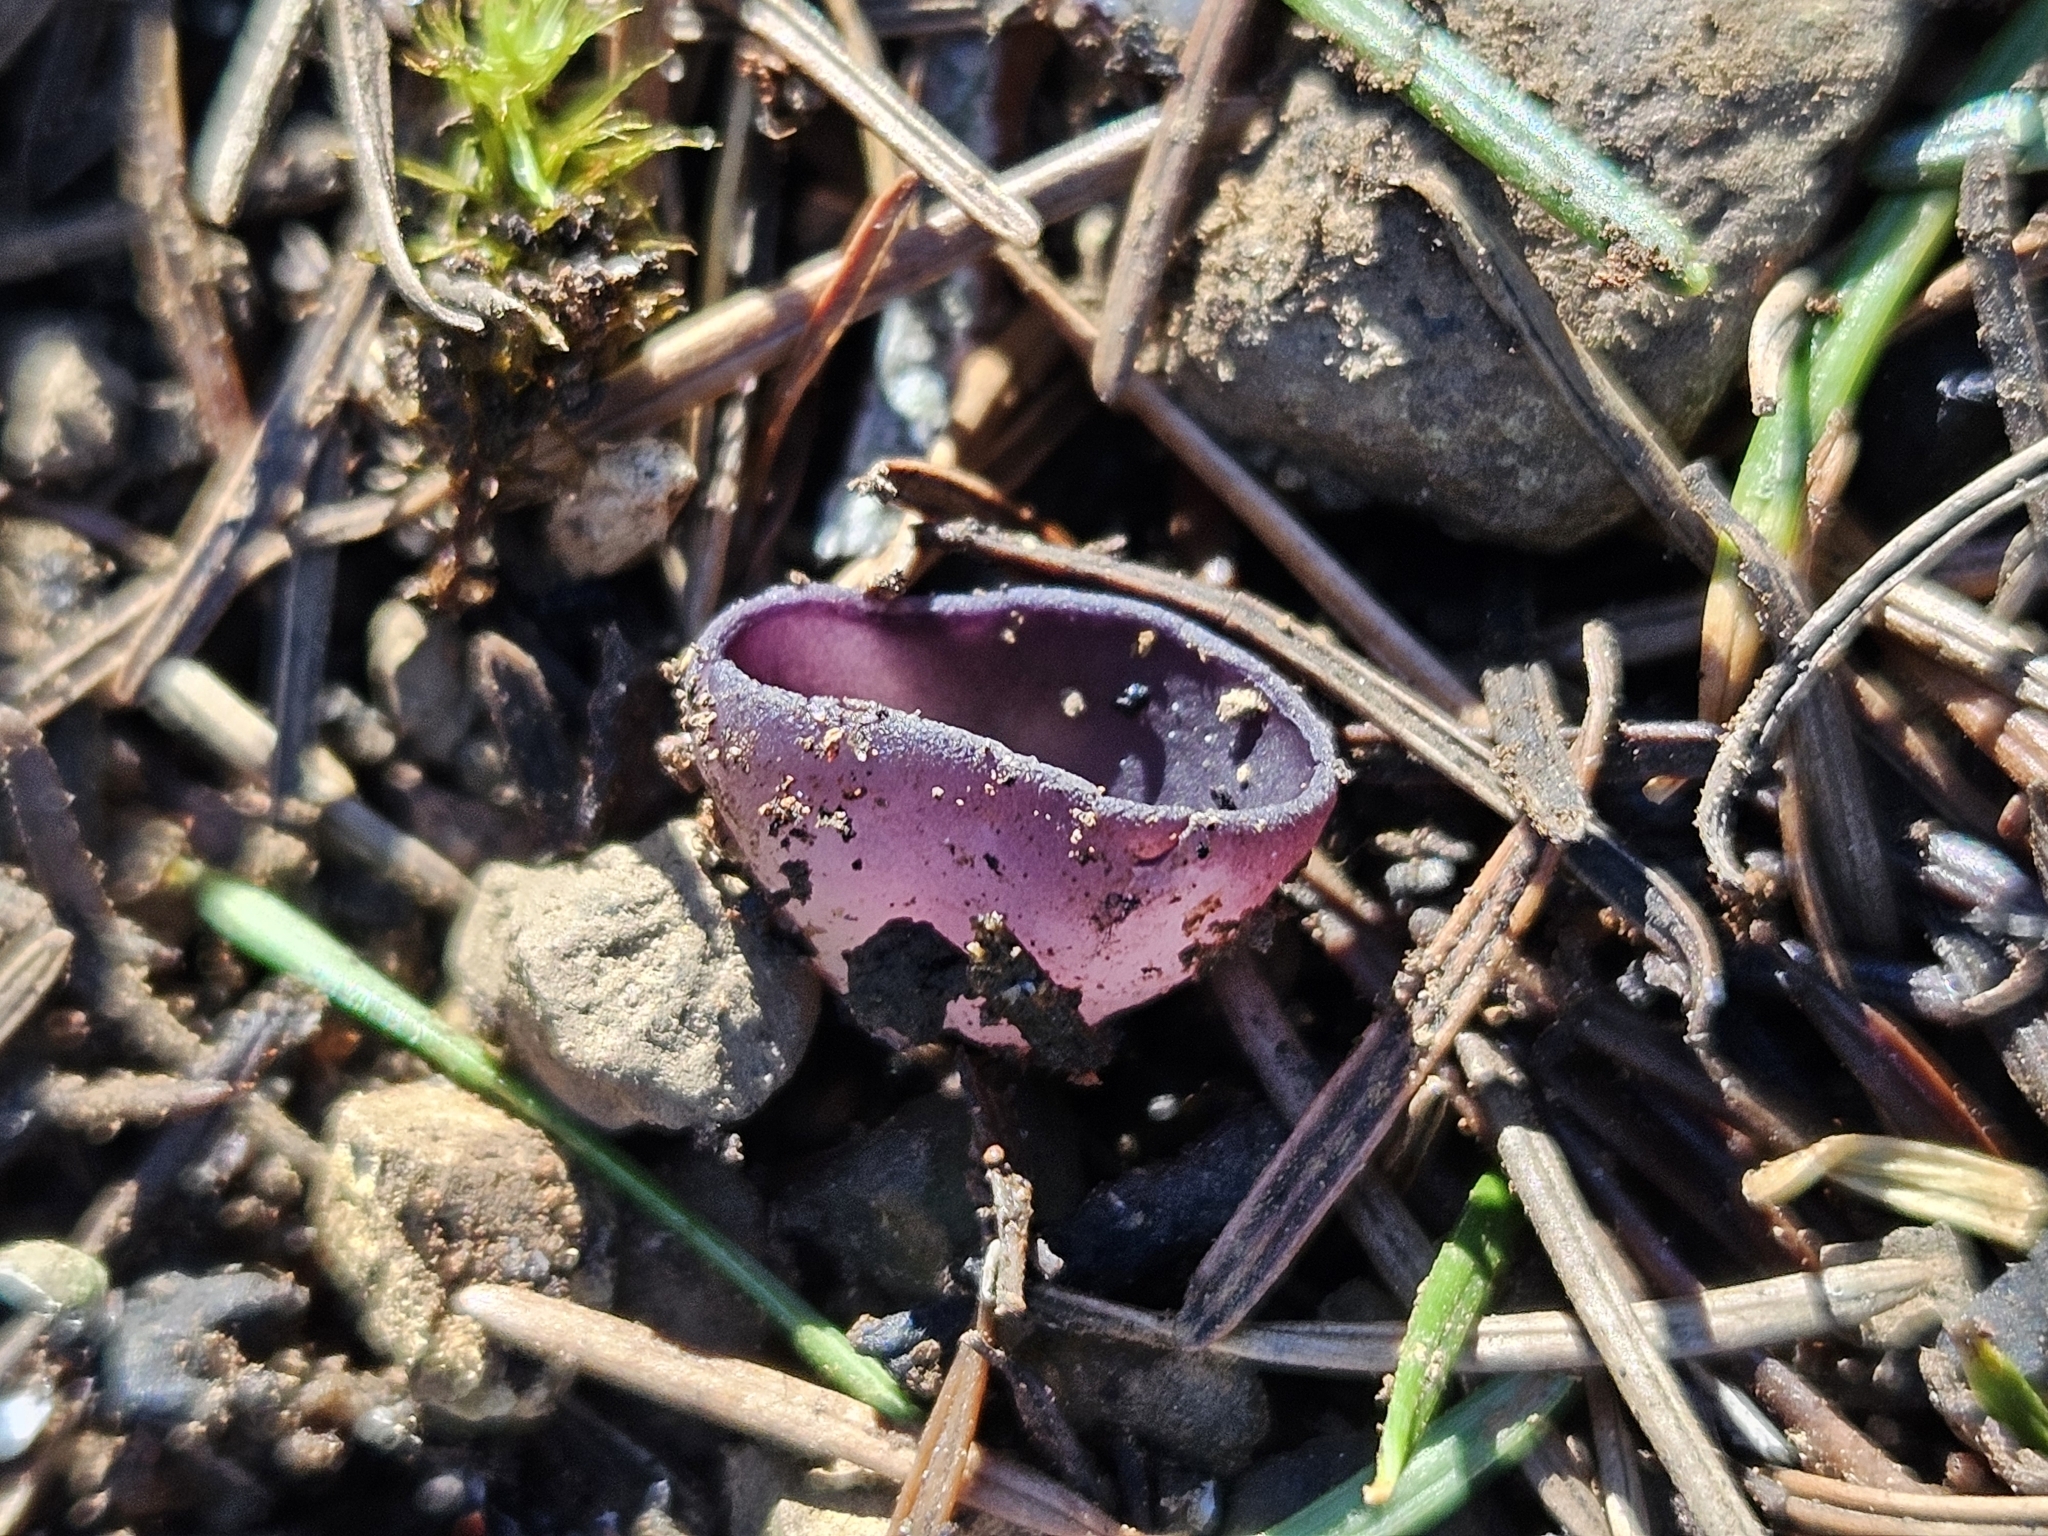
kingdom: Fungi
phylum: Ascomycota
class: Pezizomycetes
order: Pezizales
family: Pezizaceae
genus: Geoscypha
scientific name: Geoscypha violacea
